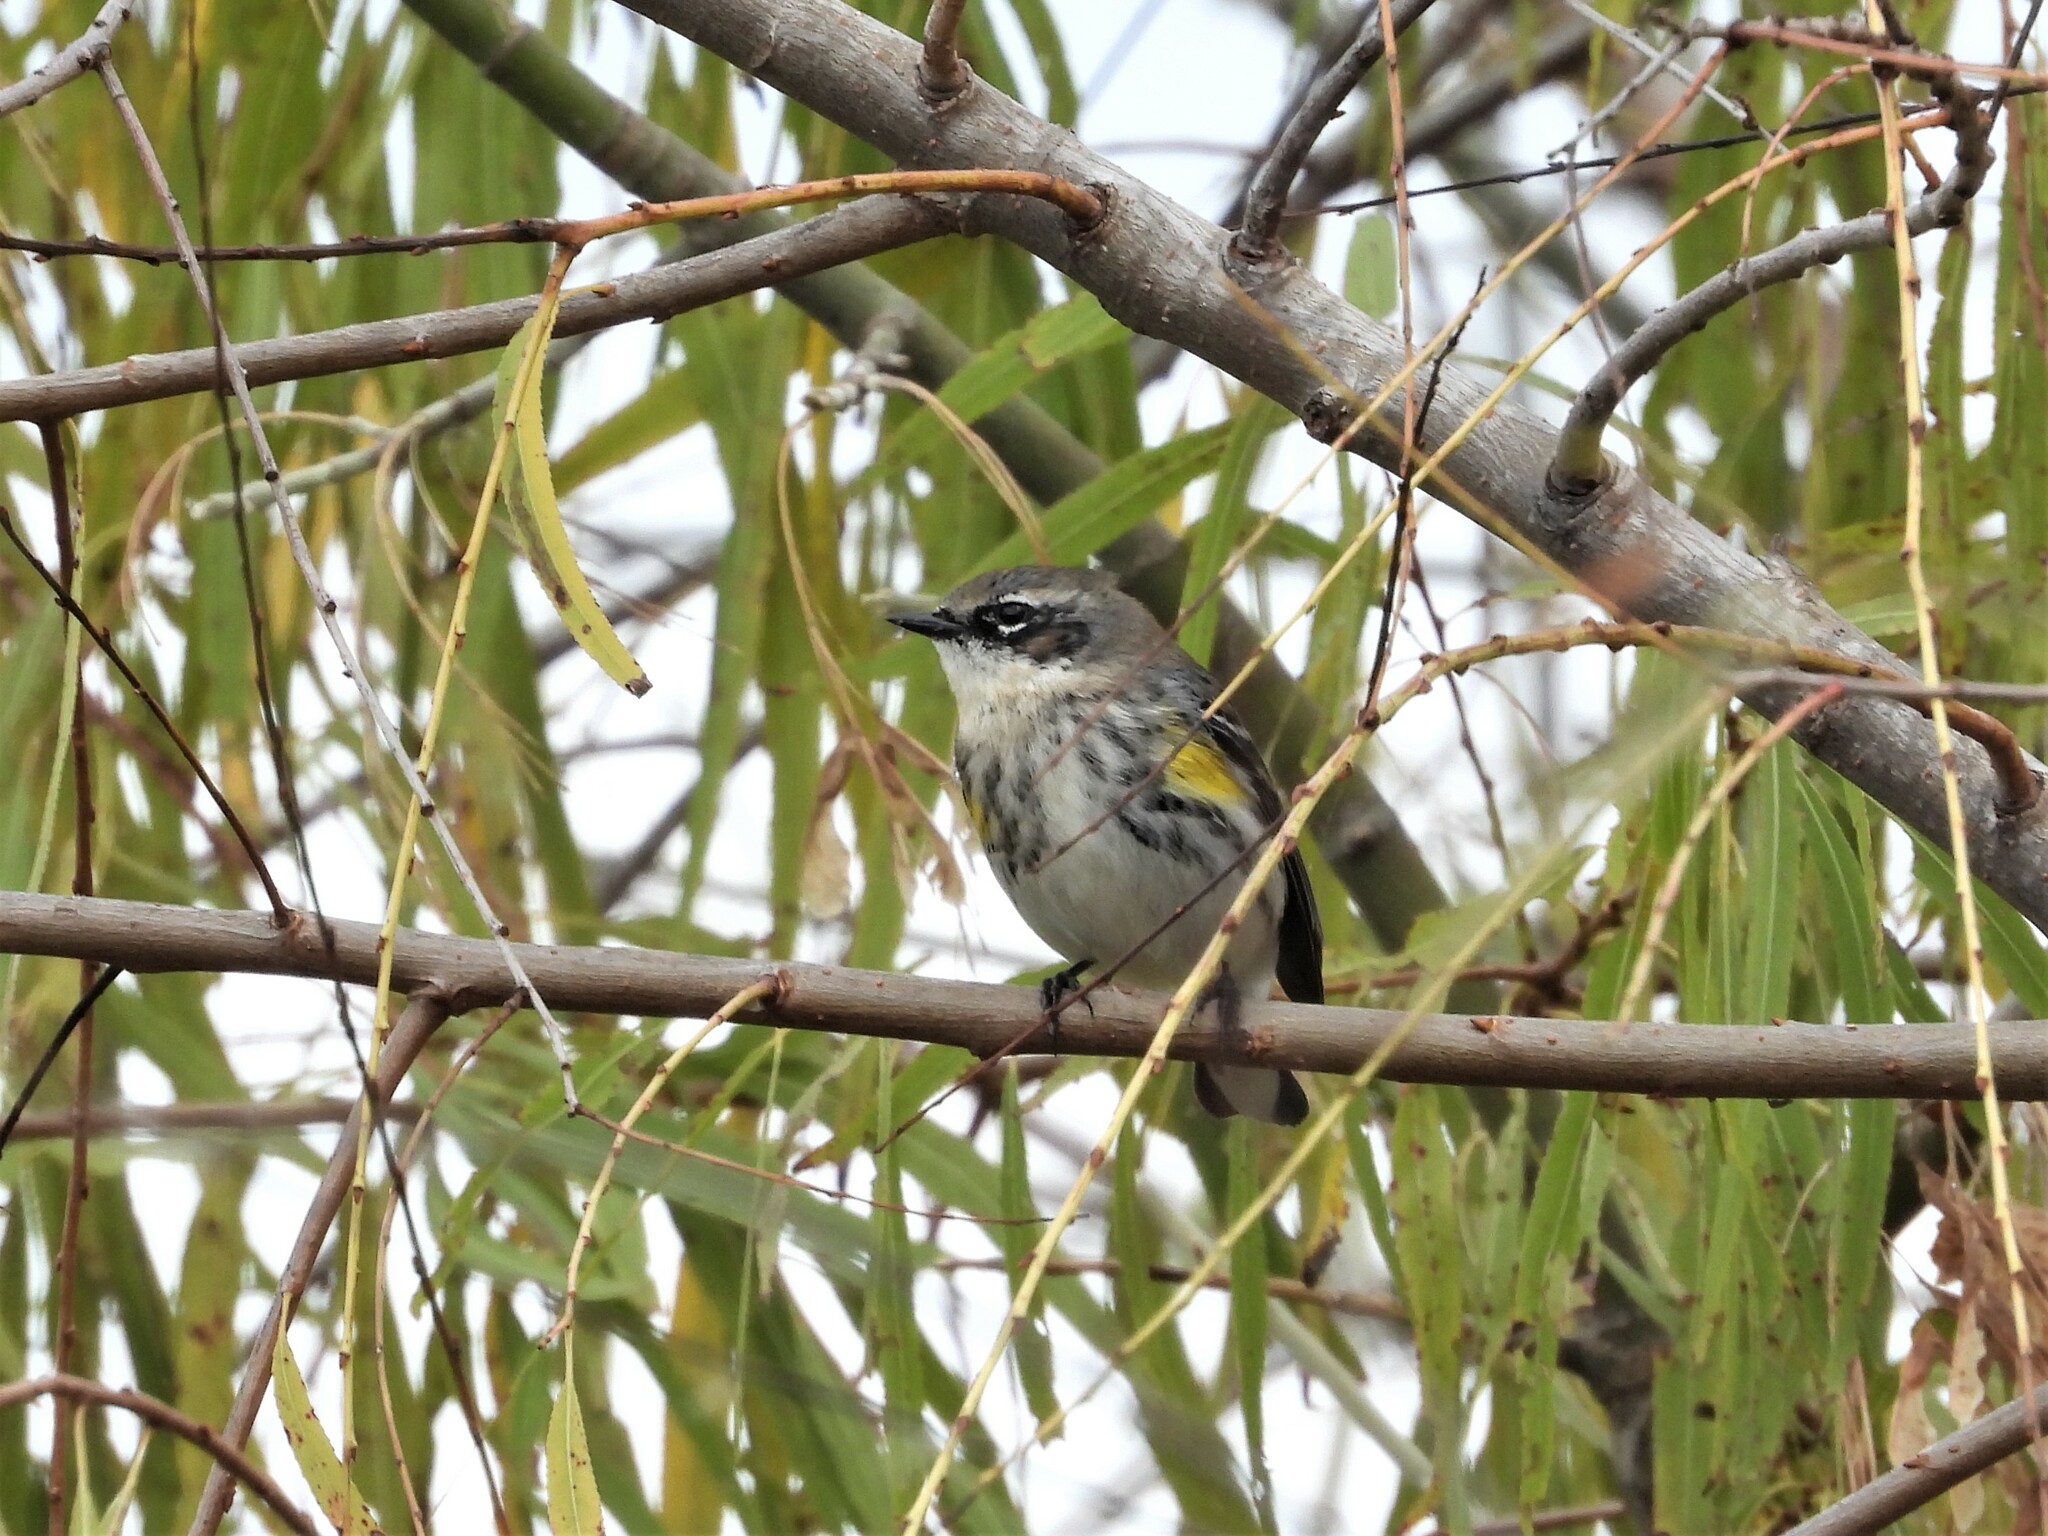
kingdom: Animalia
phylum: Chordata
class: Aves
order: Passeriformes
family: Parulidae
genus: Setophaga
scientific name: Setophaga coronata
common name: Myrtle warbler
